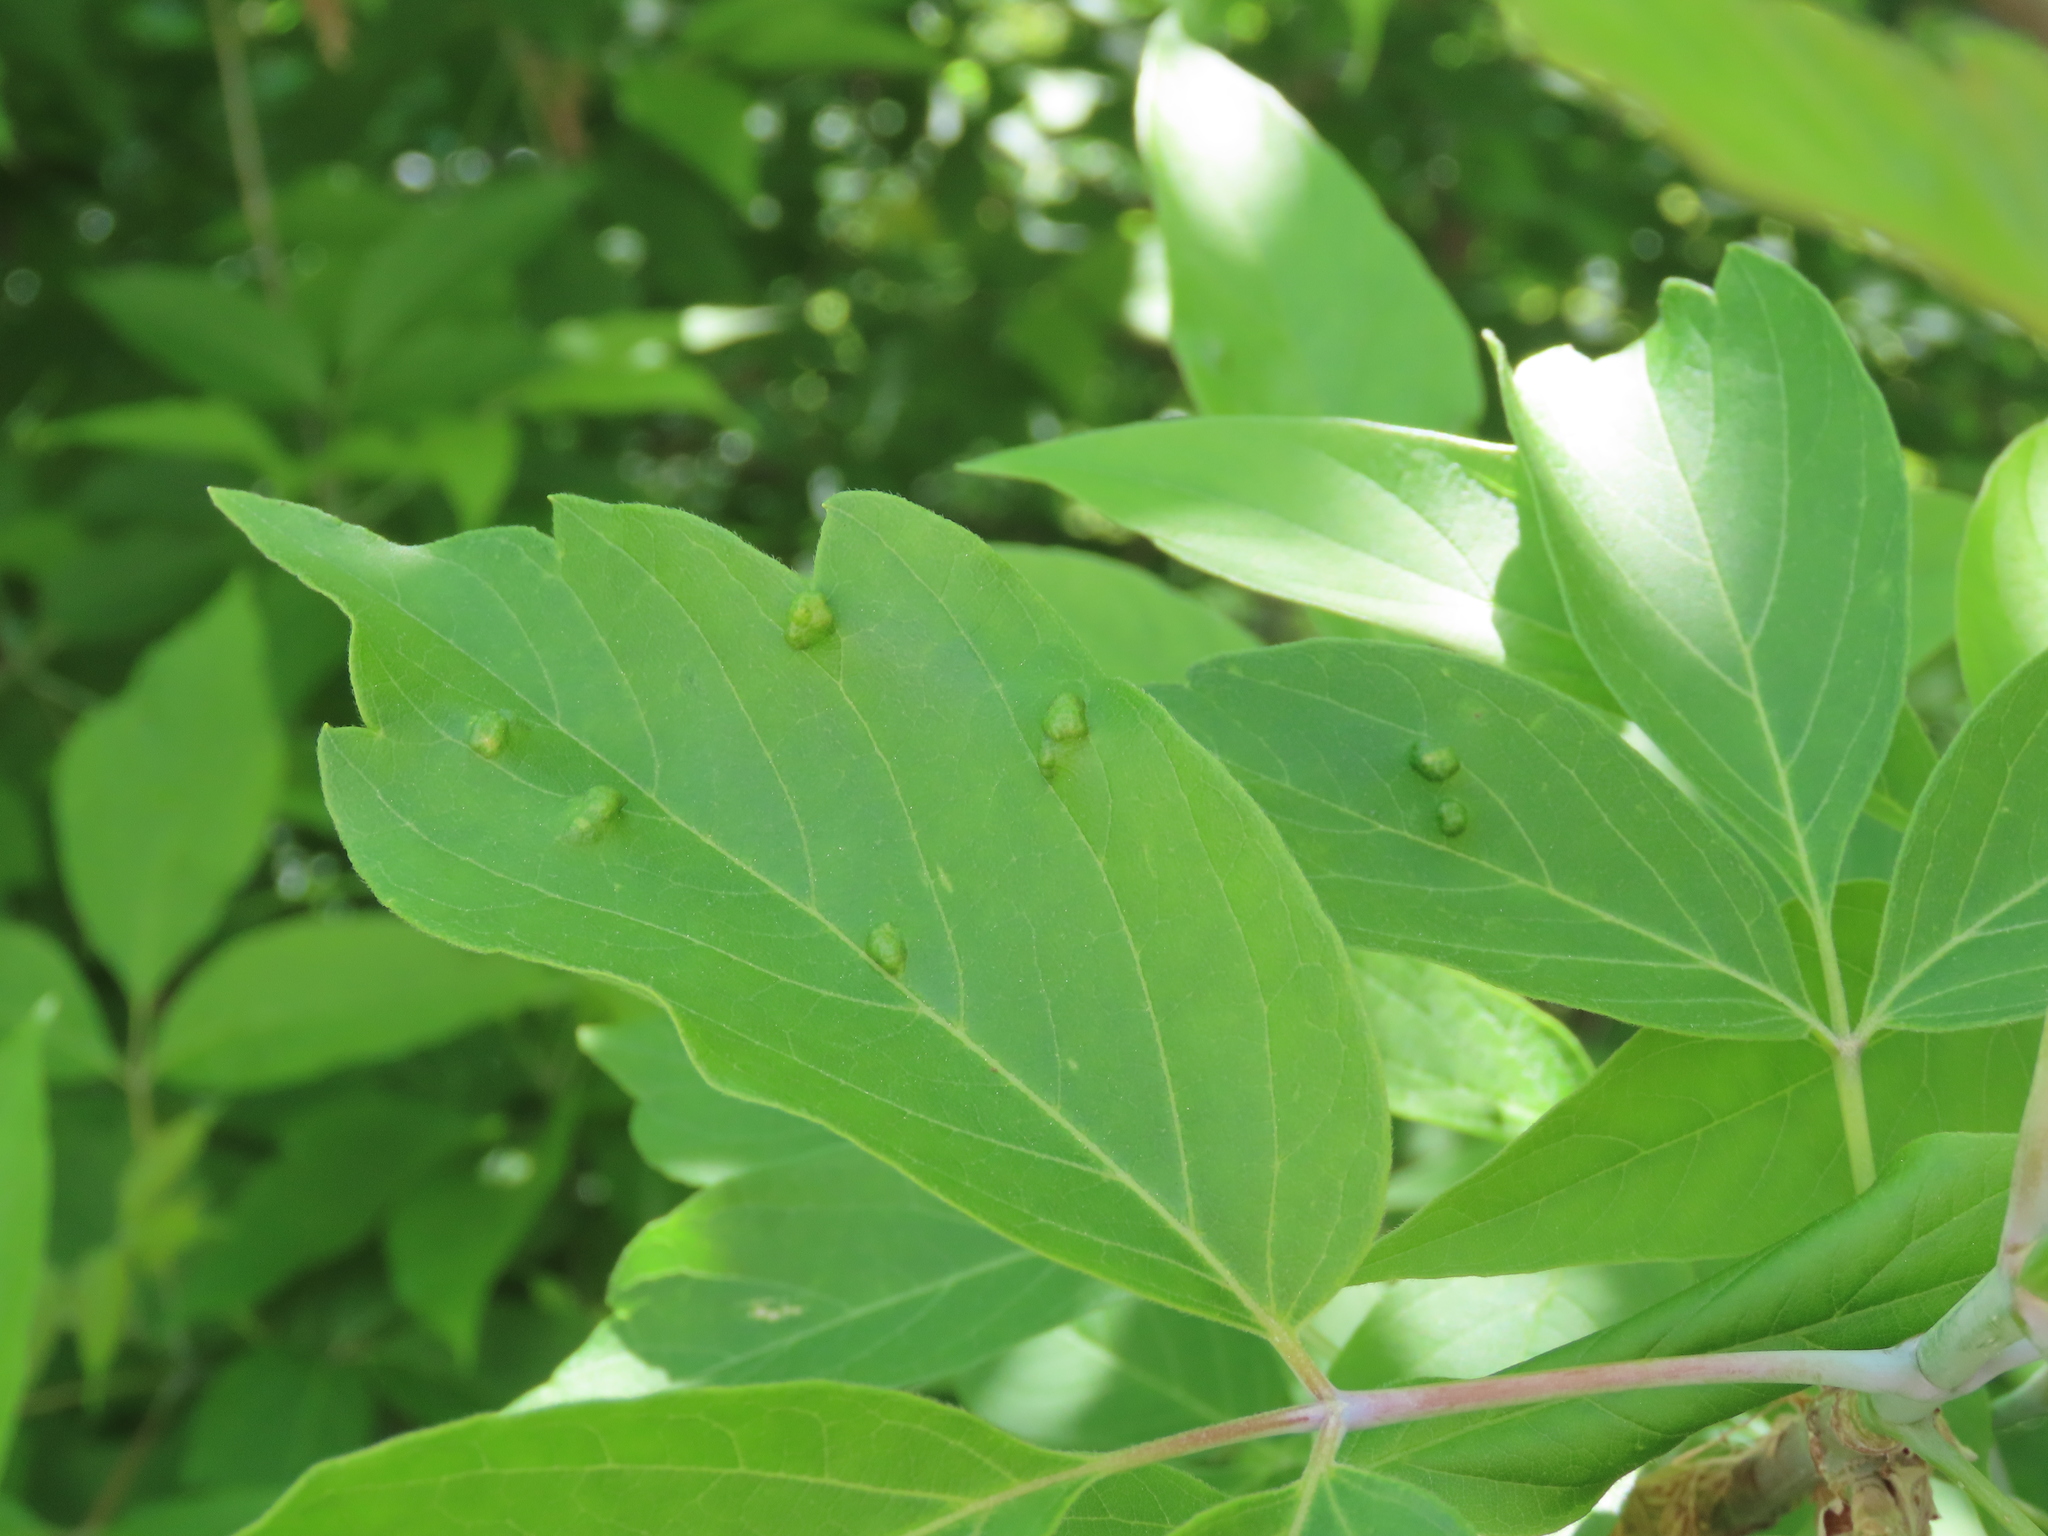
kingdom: Animalia
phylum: Arthropoda
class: Arachnida
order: Trombidiformes
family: Eriophyidae
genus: Aceria
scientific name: Aceria
